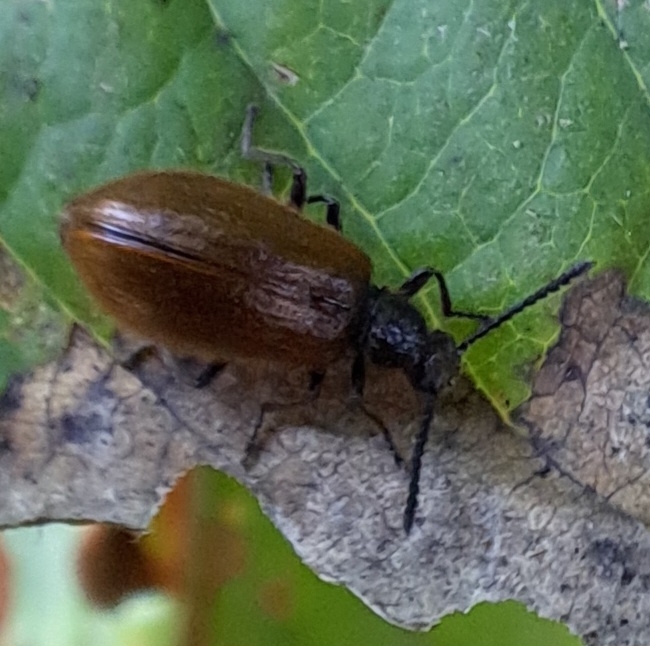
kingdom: Animalia
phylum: Arthropoda
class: Insecta
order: Coleoptera
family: Tenebrionidae
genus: Lagria
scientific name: Lagria hirta
